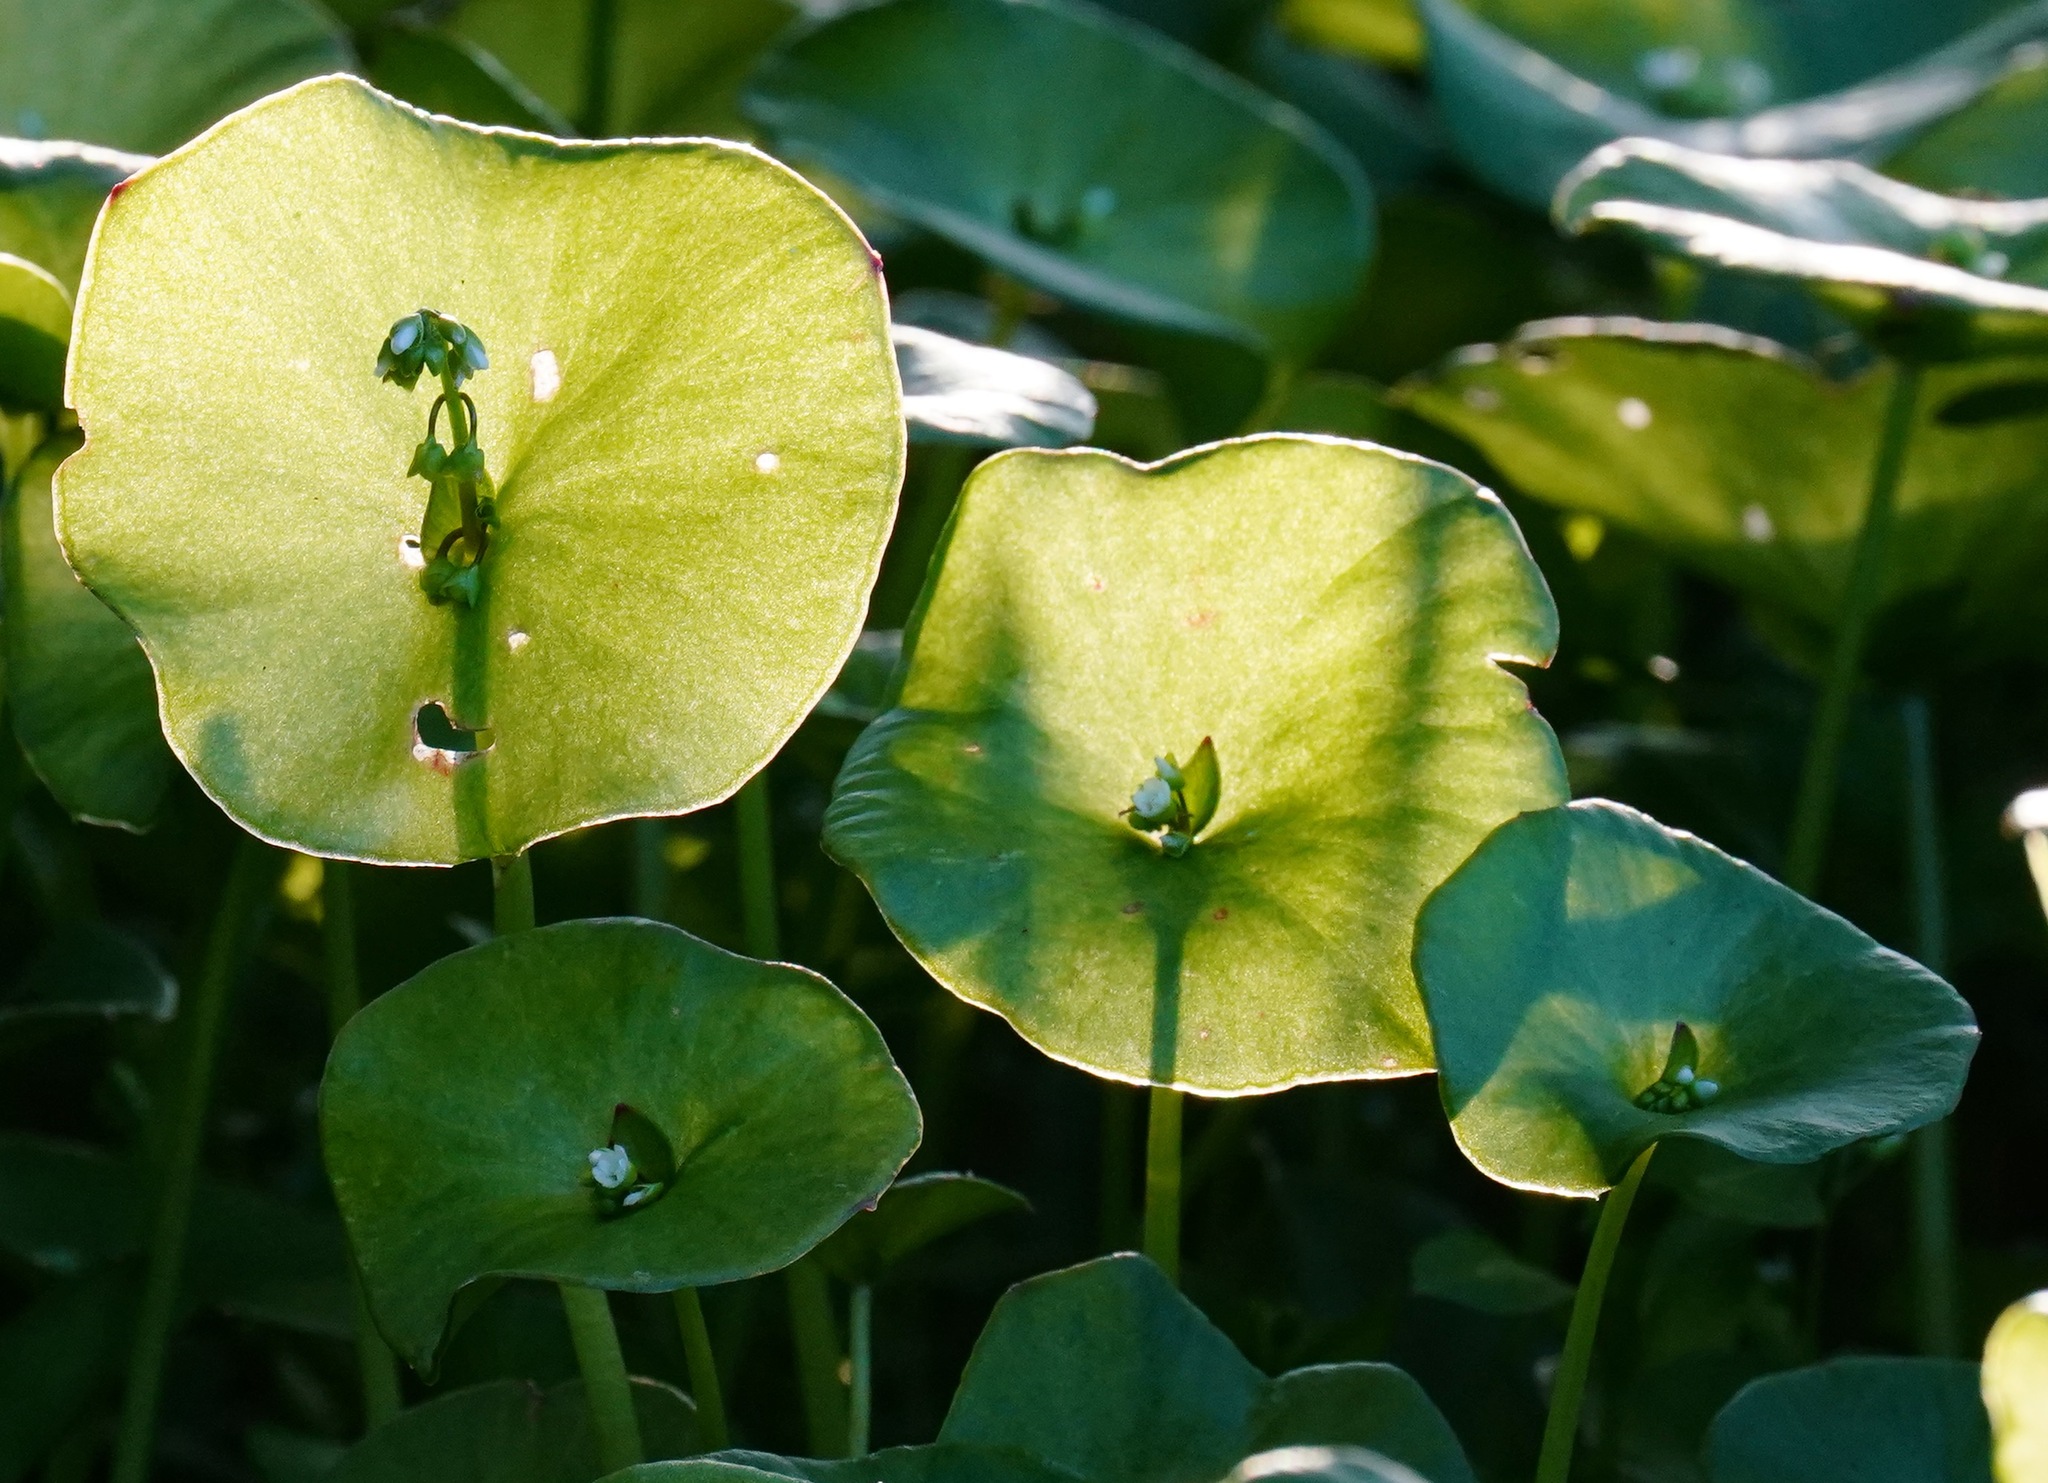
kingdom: Plantae
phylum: Tracheophyta
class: Magnoliopsida
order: Caryophyllales
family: Montiaceae
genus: Claytonia
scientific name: Claytonia perfoliata
